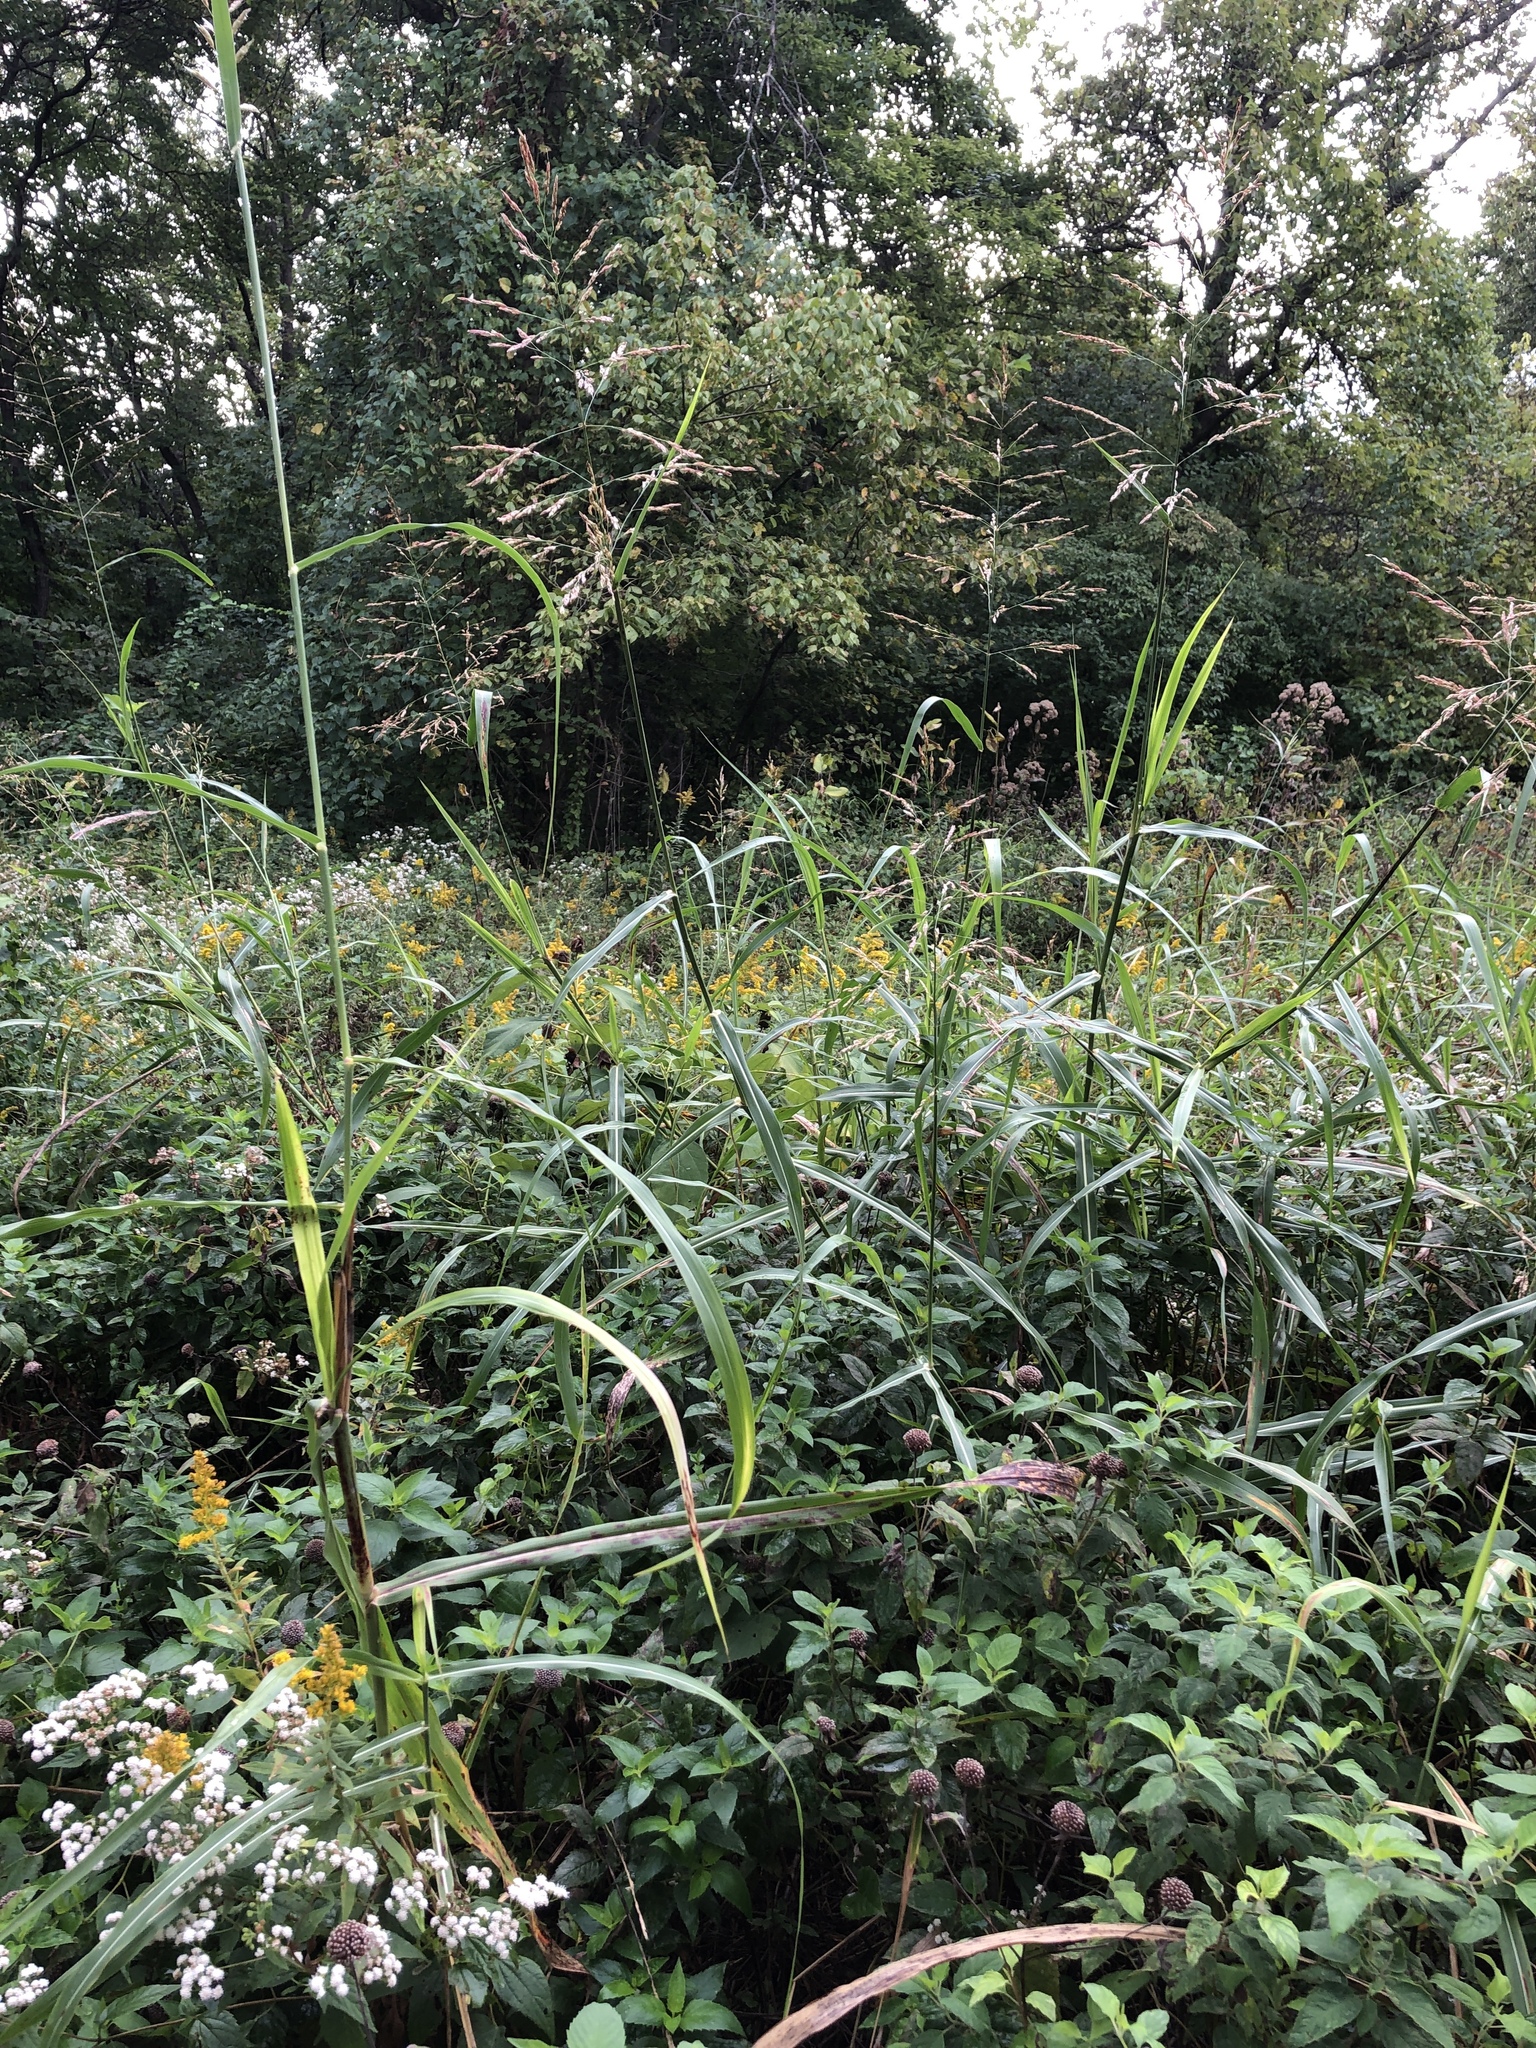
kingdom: Plantae
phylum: Tracheophyta
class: Liliopsida
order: Poales
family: Poaceae
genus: Sorghum
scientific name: Sorghum halepense
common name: Johnson-grass
